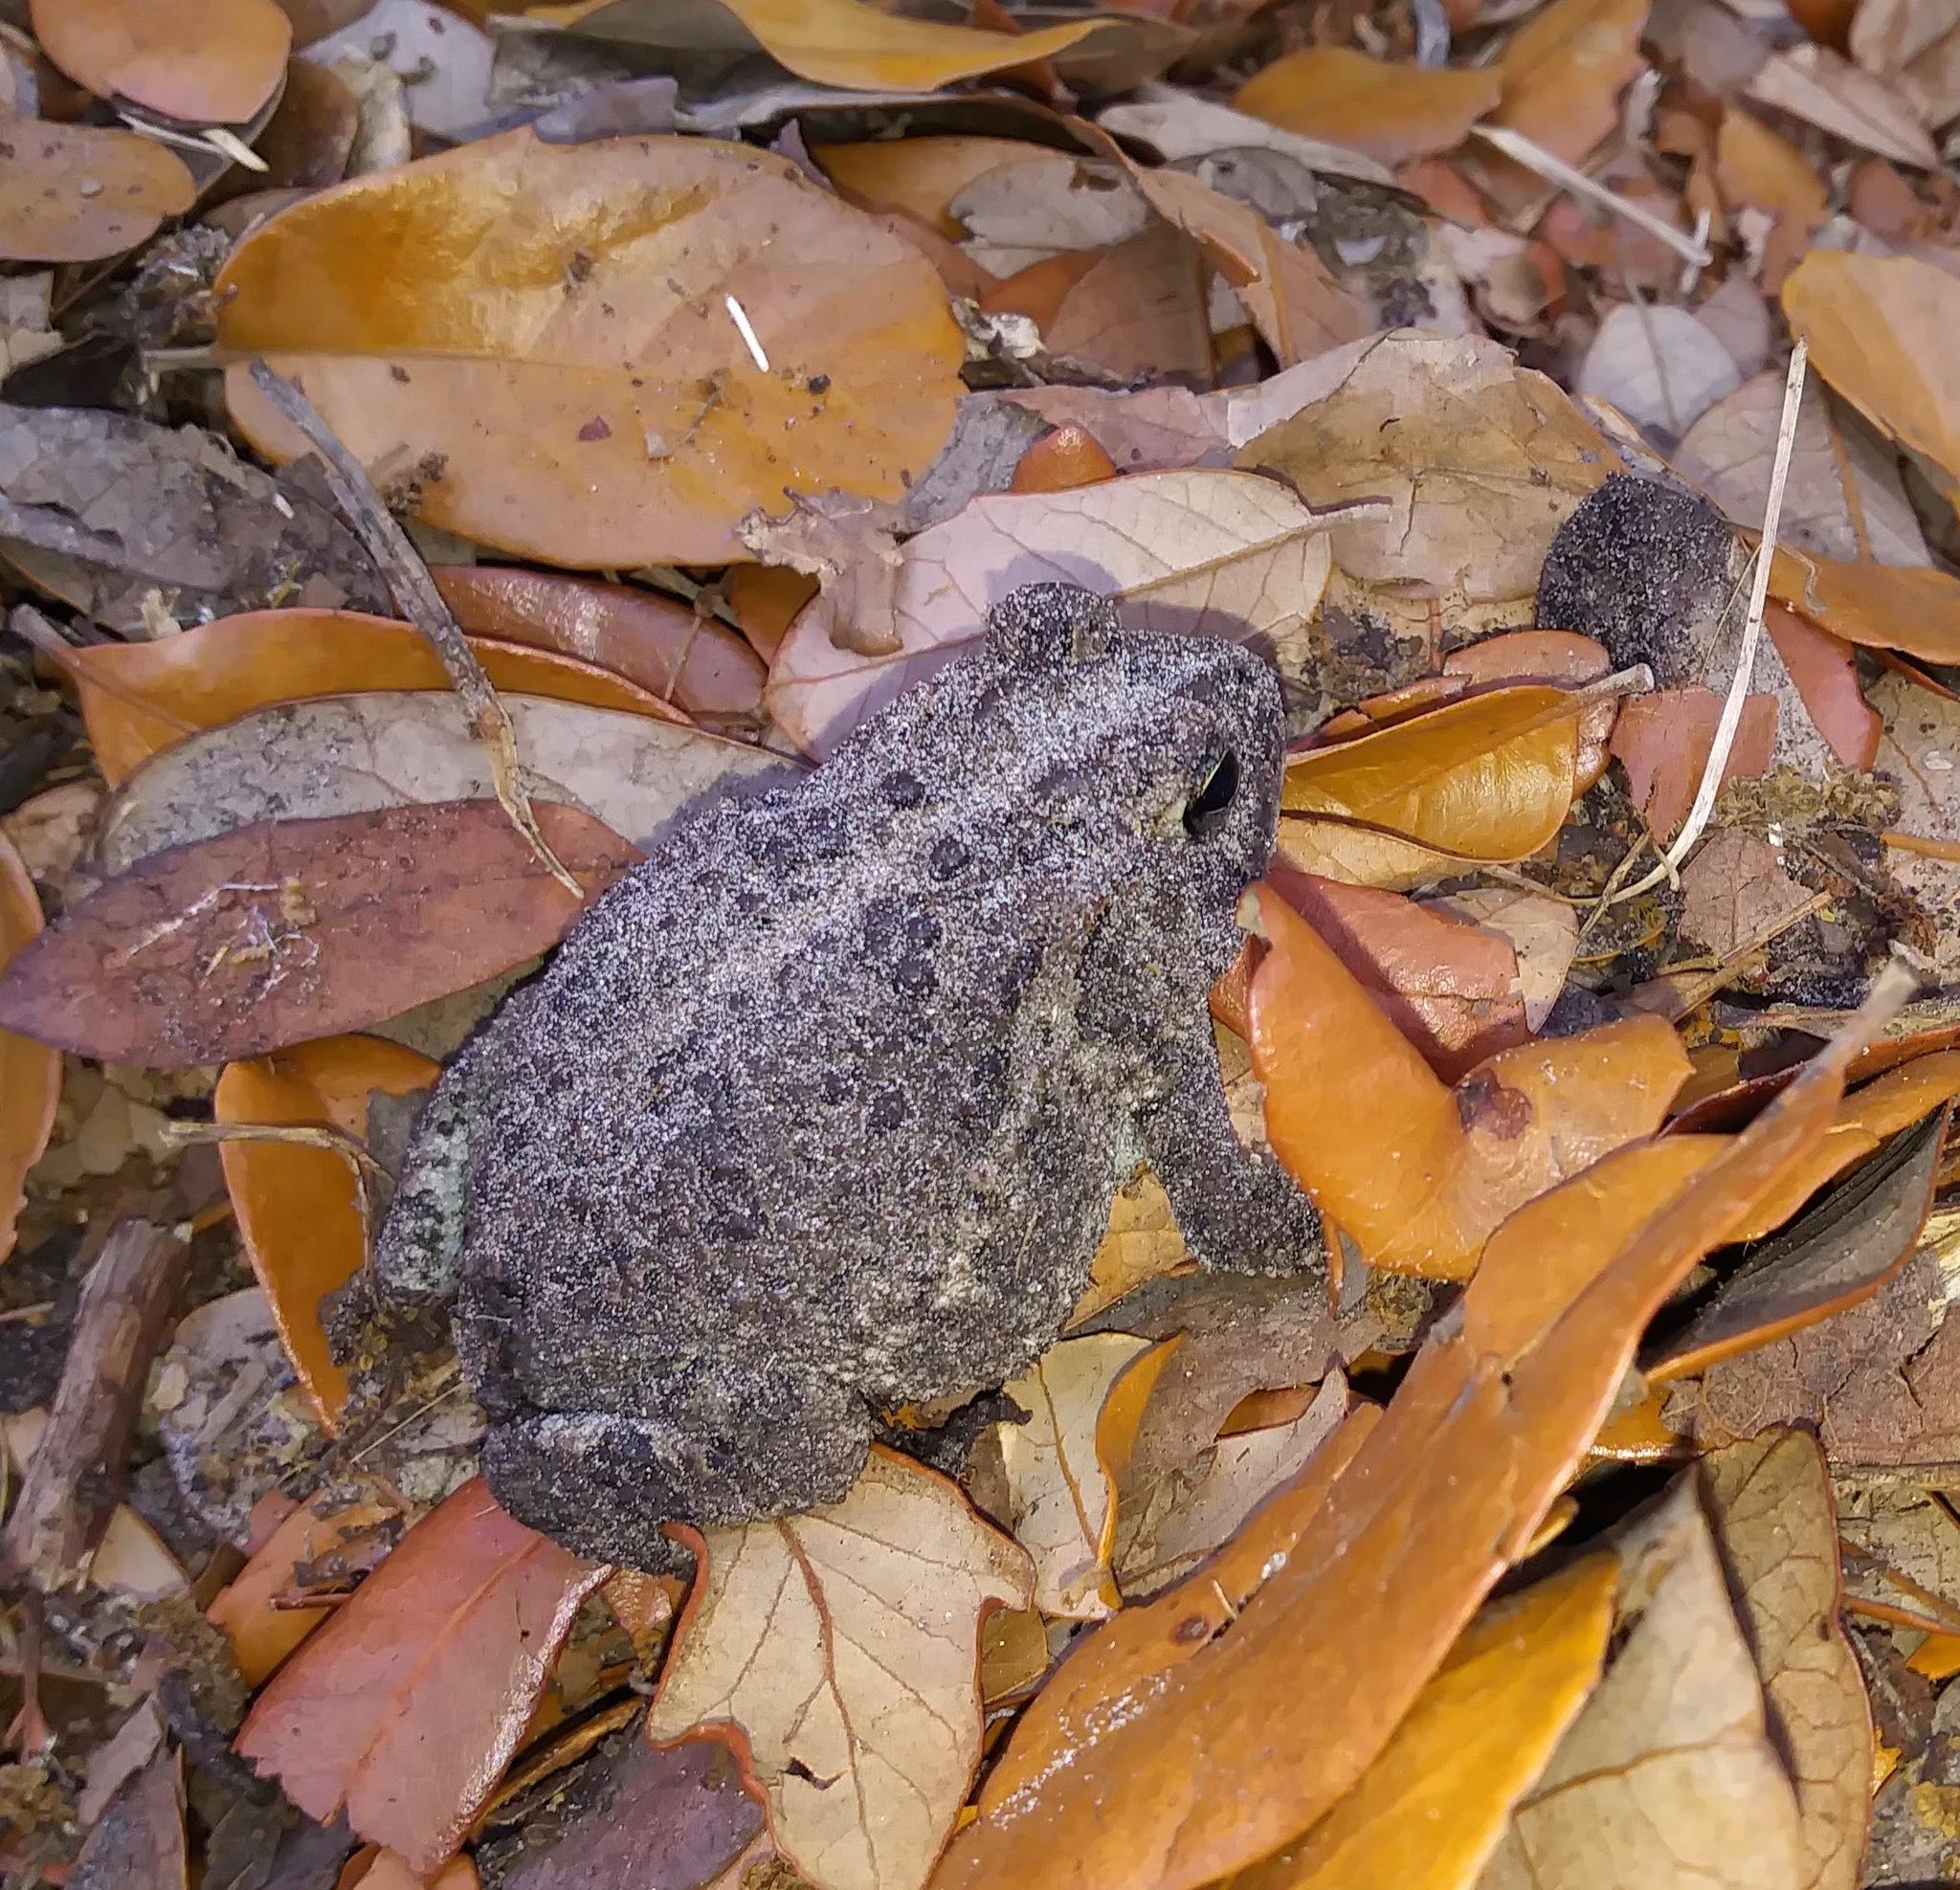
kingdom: Animalia
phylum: Chordata
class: Amphibia
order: Anura
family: Bufonidae
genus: Anaxyrus
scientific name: Anaxyrus terrestris
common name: Southern toad
